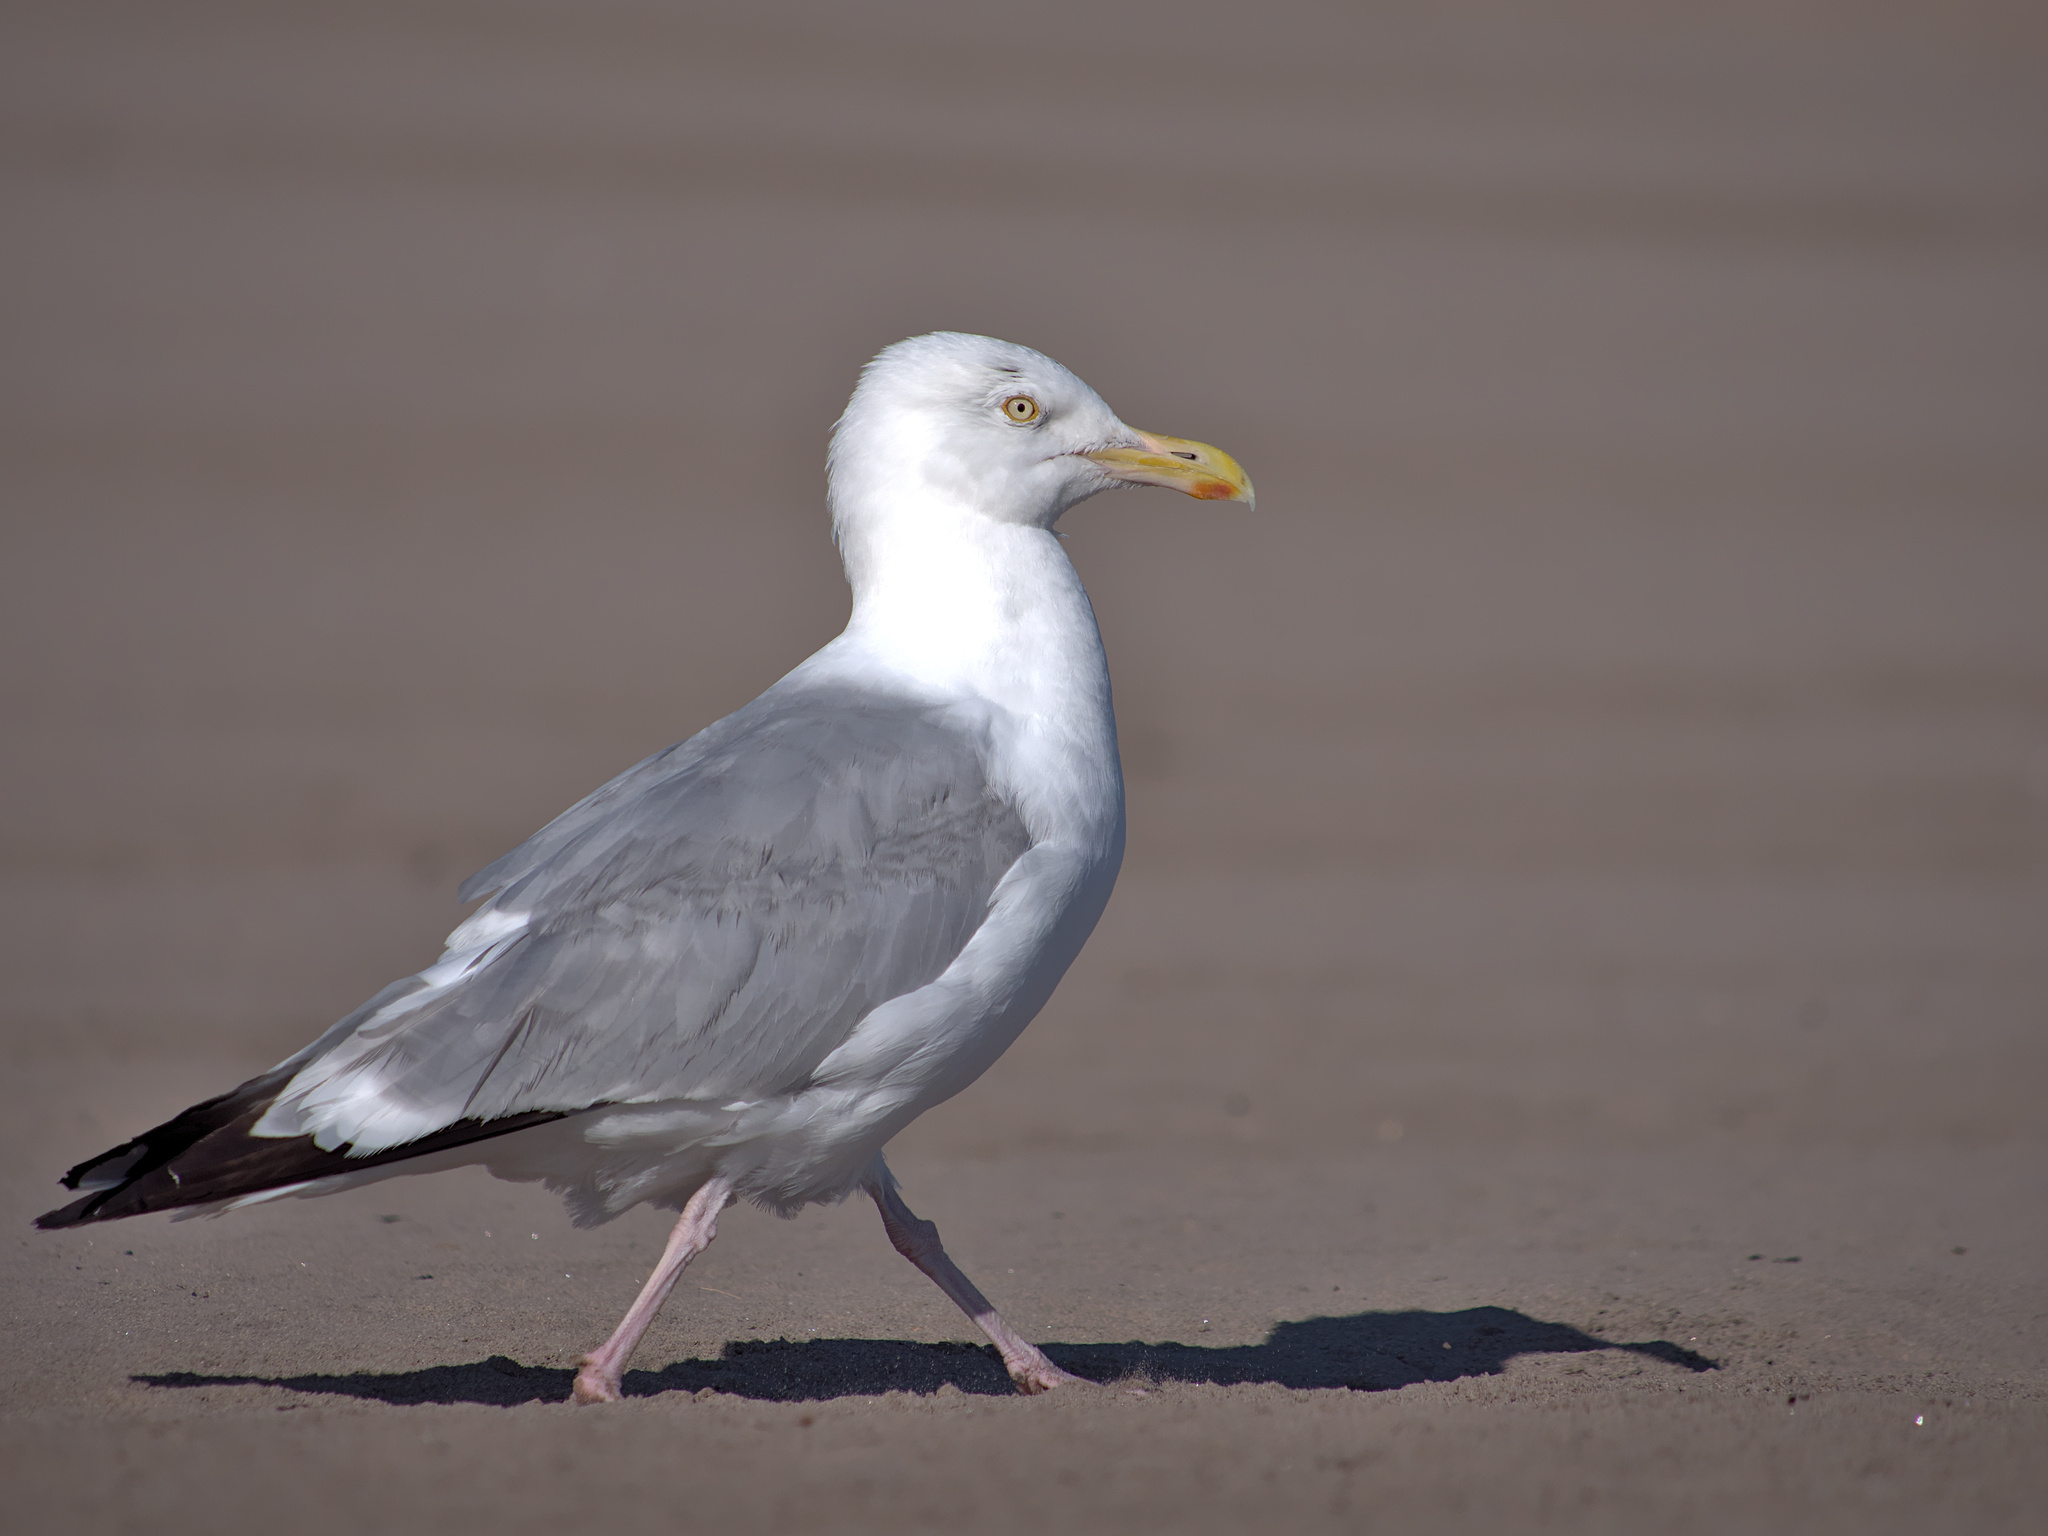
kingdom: Animalia
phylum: Chordata
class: Aves
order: Charadriiformes
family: Laridae
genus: Larus
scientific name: Larus argentatus
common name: Herring gull
